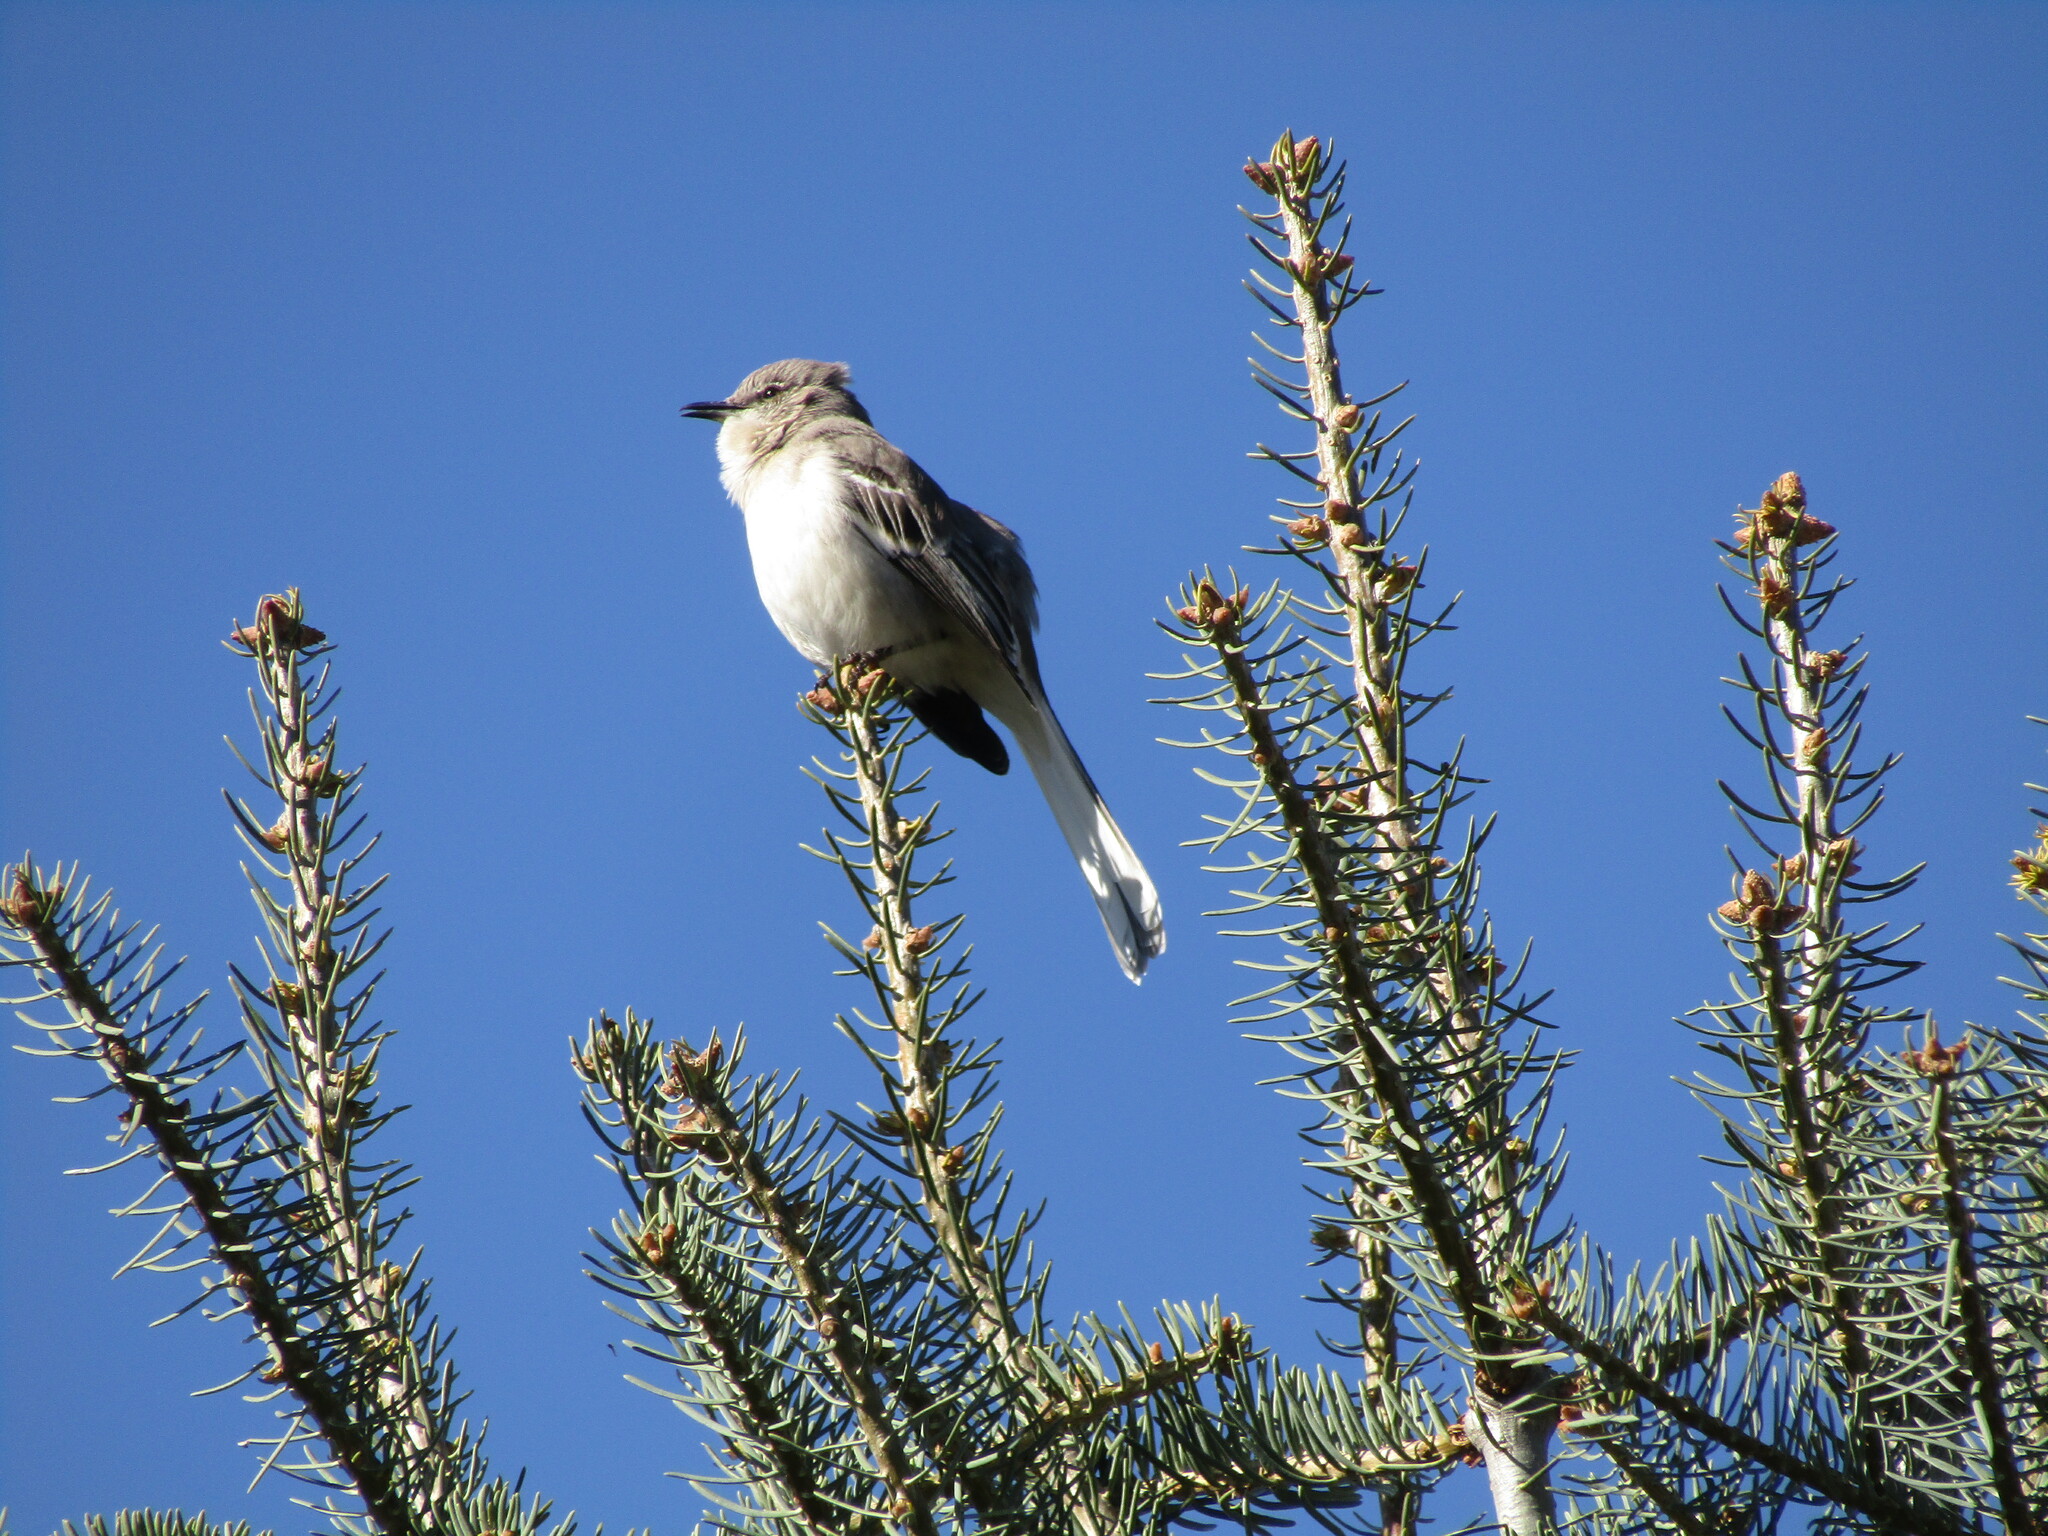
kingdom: Animalia
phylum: Chordata
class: Aves
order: Passeriformes
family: Mimidae
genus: Mimus
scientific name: Mimus polyglottos
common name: Northern mockingbird
